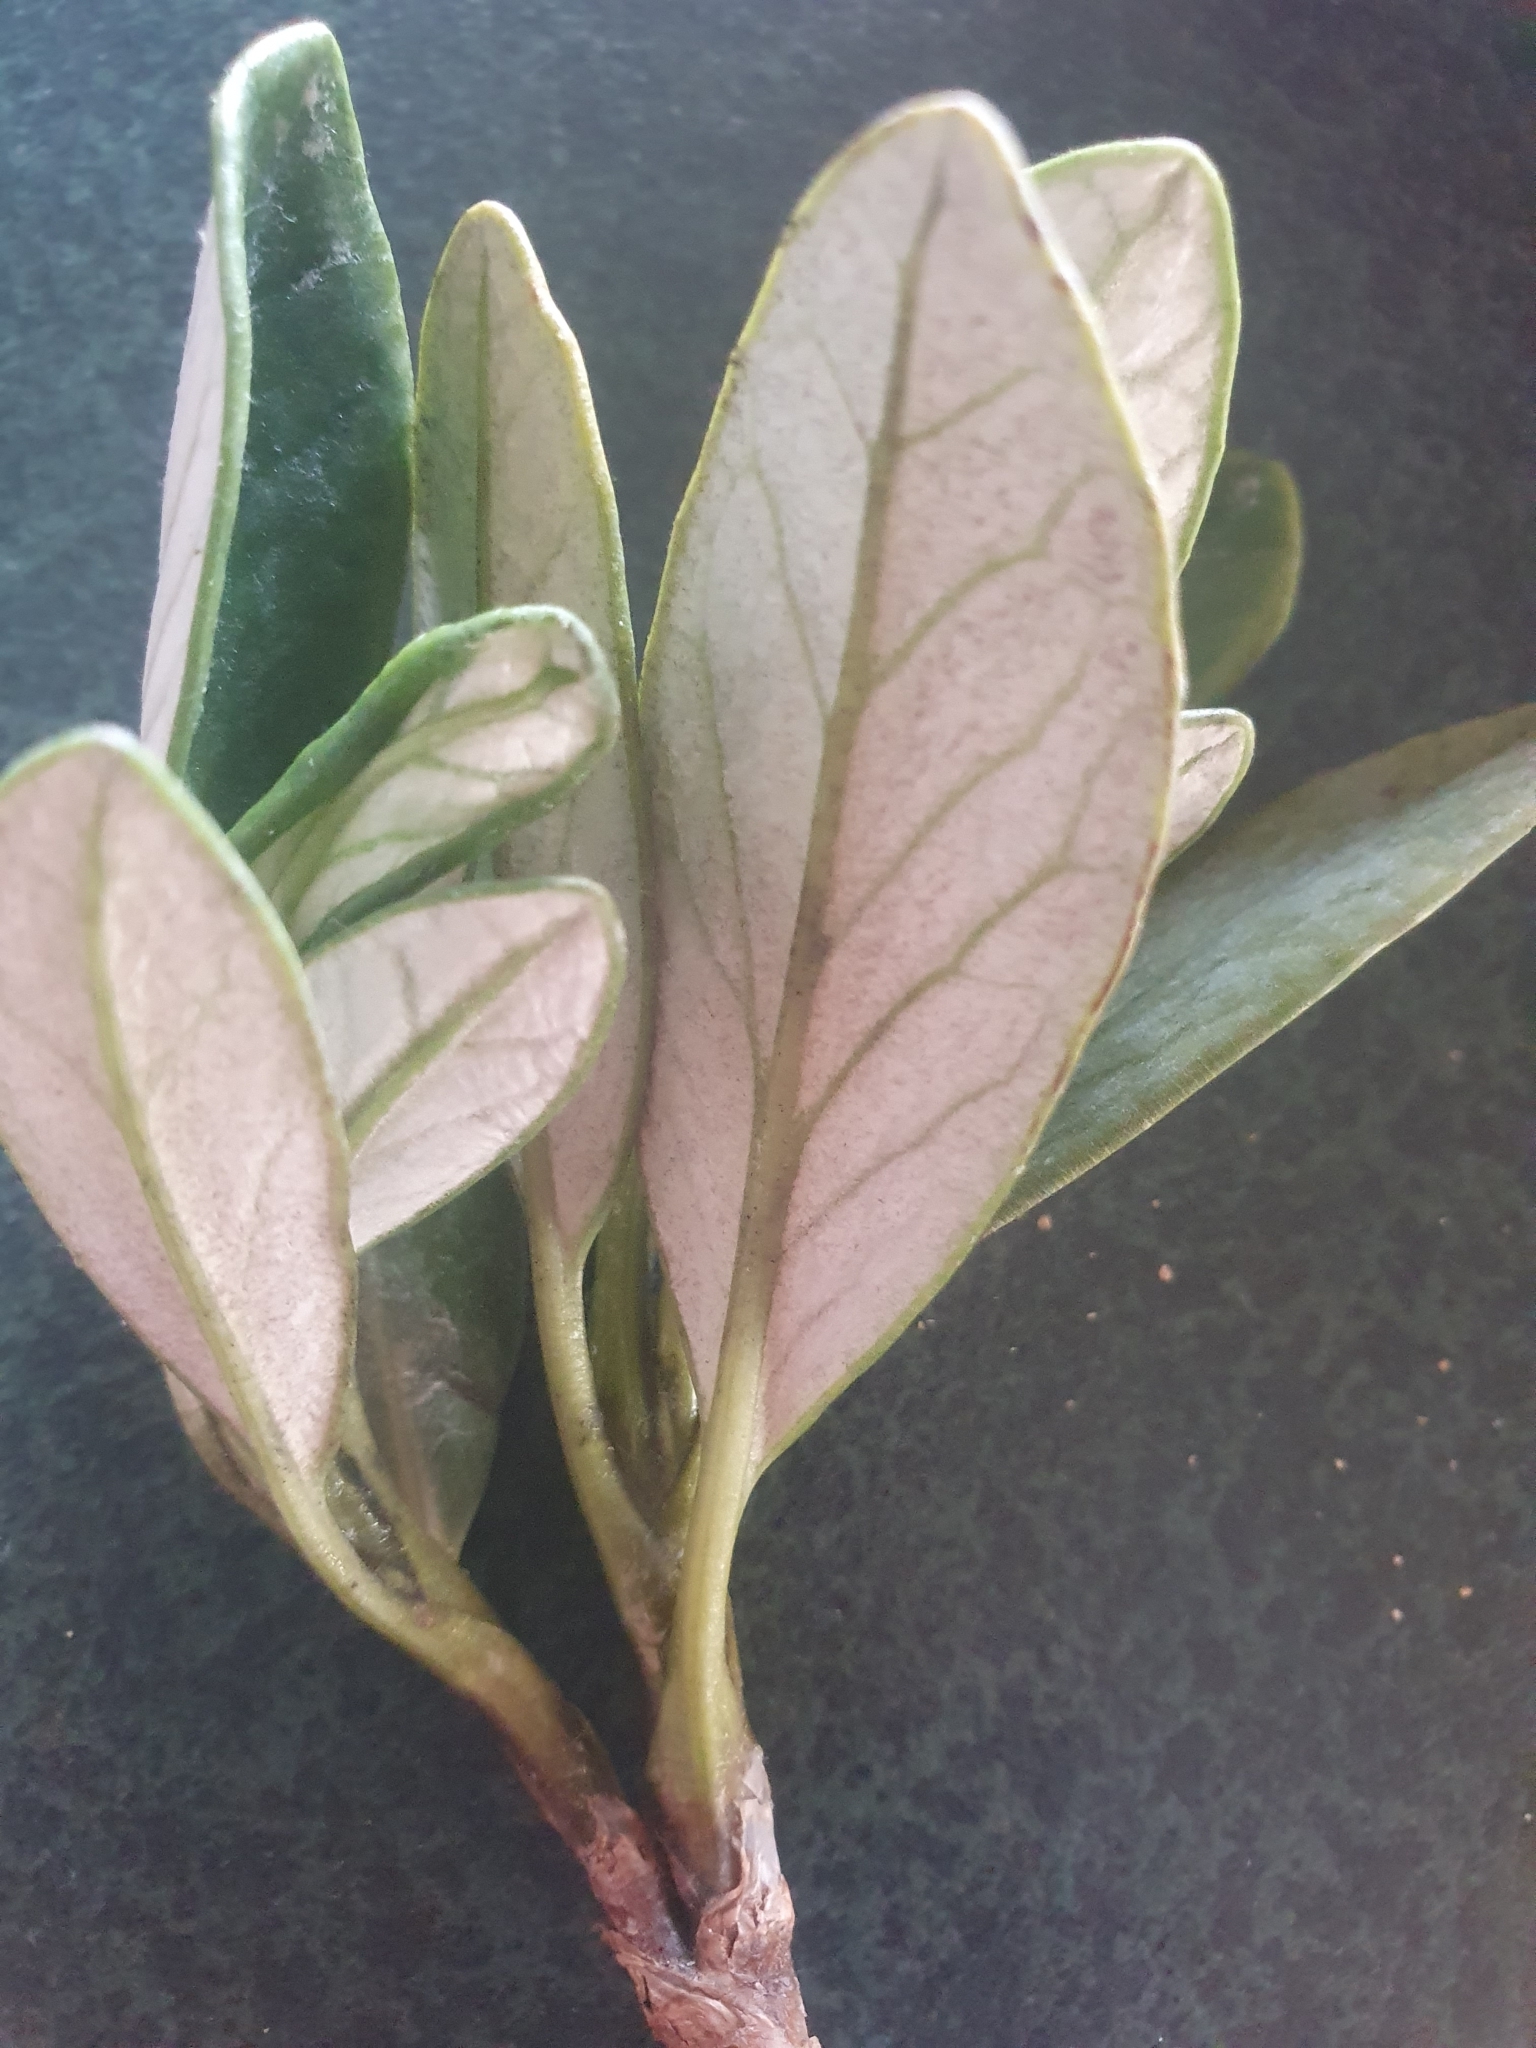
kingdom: Plantae
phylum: Tracheophyta
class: Magnoliopsida
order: Asterales
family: Asteraceae
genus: Brachyglottis
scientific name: Brachyglottis adamsii
